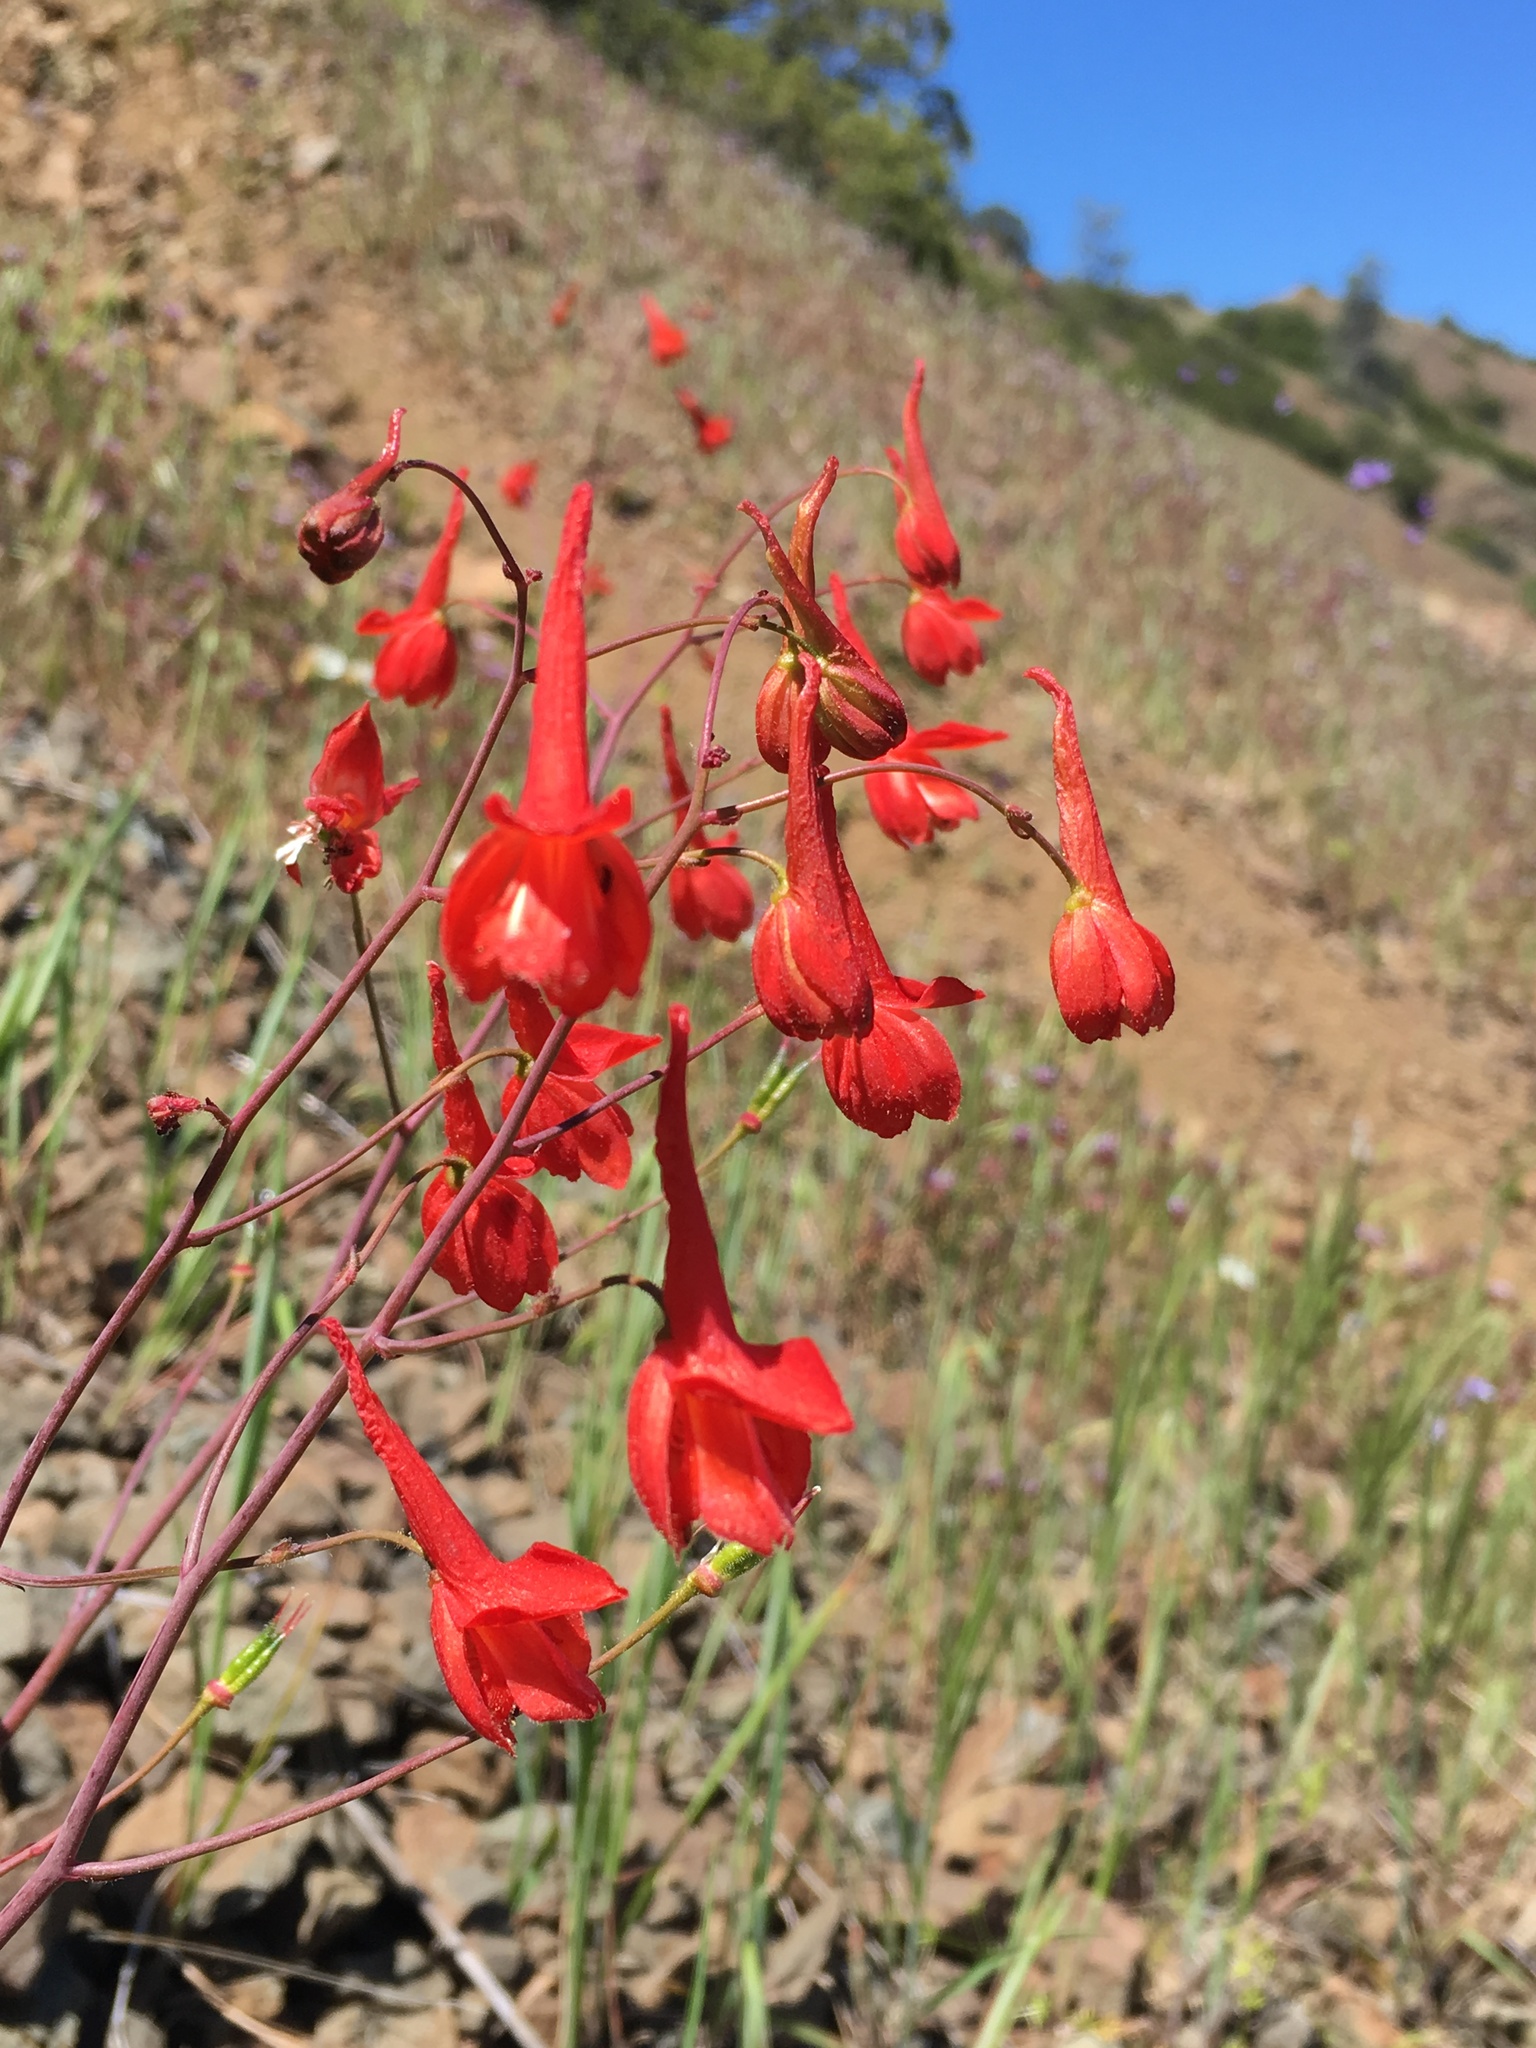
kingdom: Plantae
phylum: Tracheophyta
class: Magnoliopsida
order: Ranunculales
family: Ranunculaceae
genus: Delphinium
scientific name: Delphinium nudicaule
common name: Red larkspur
